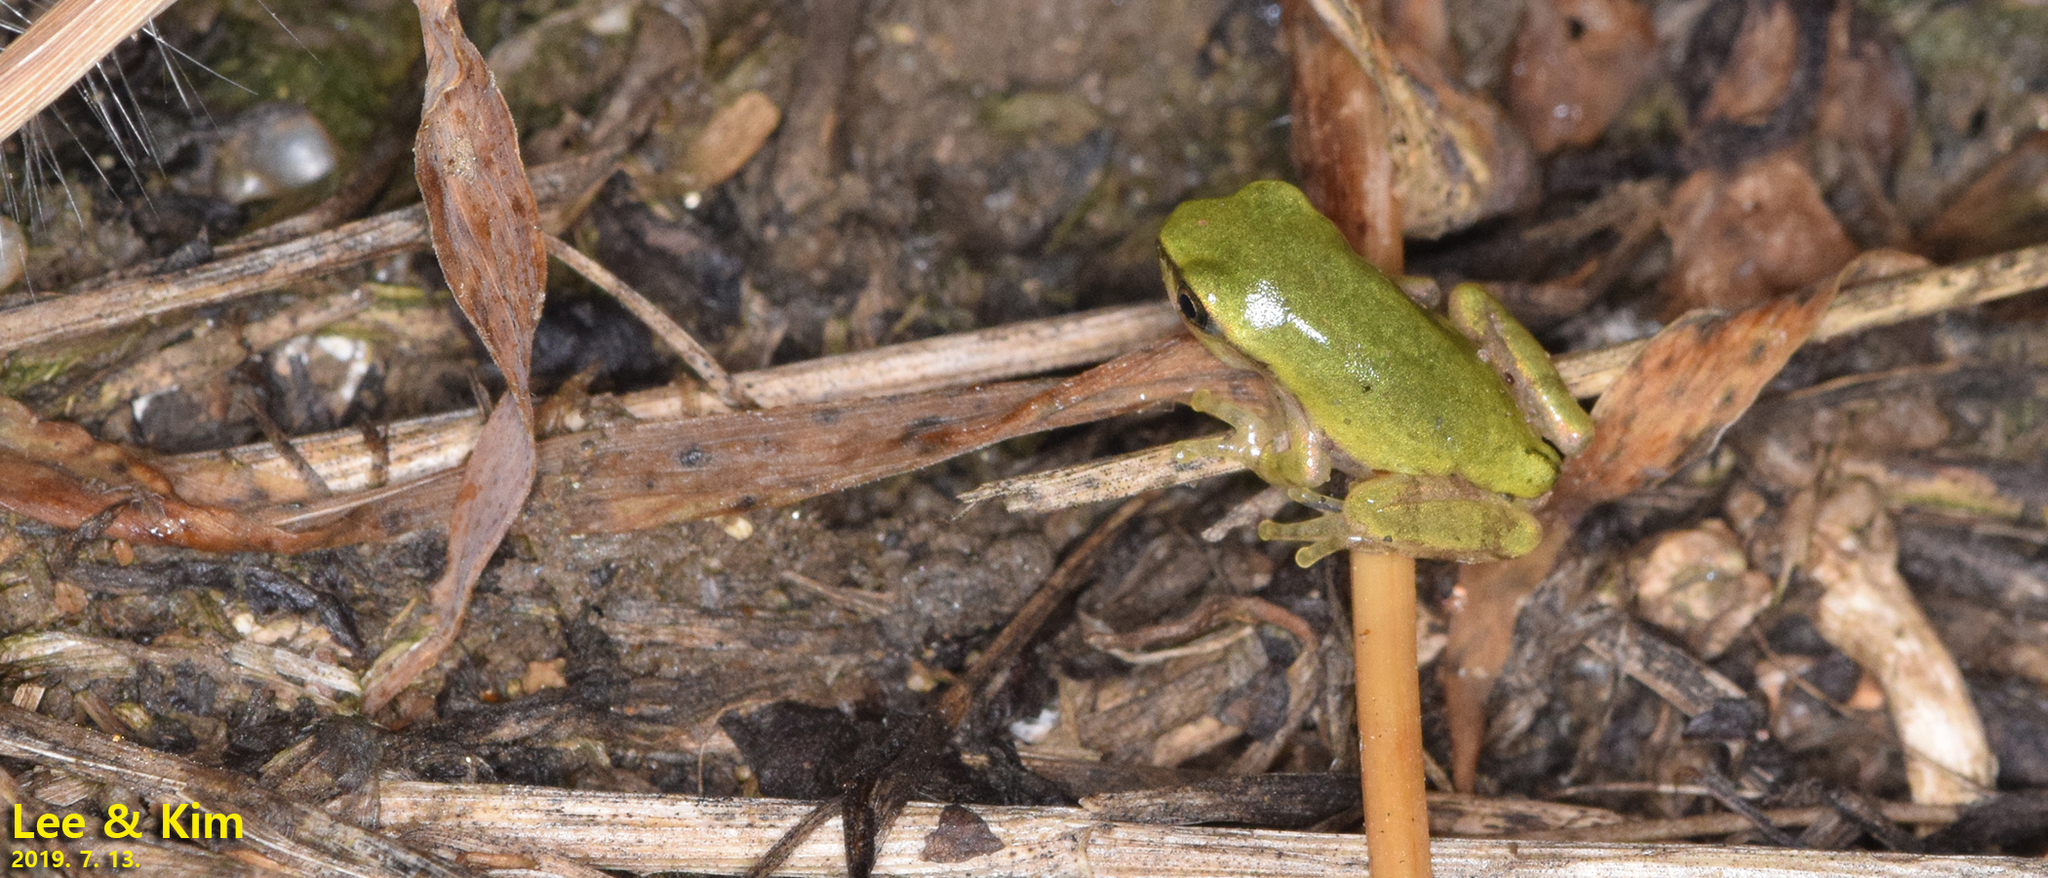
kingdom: Animalia
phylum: Chordata
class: Amphibia
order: Anura
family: Hylidae
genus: Dryophytes
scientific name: Dryophytes japonicus
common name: Japanese treefrog
